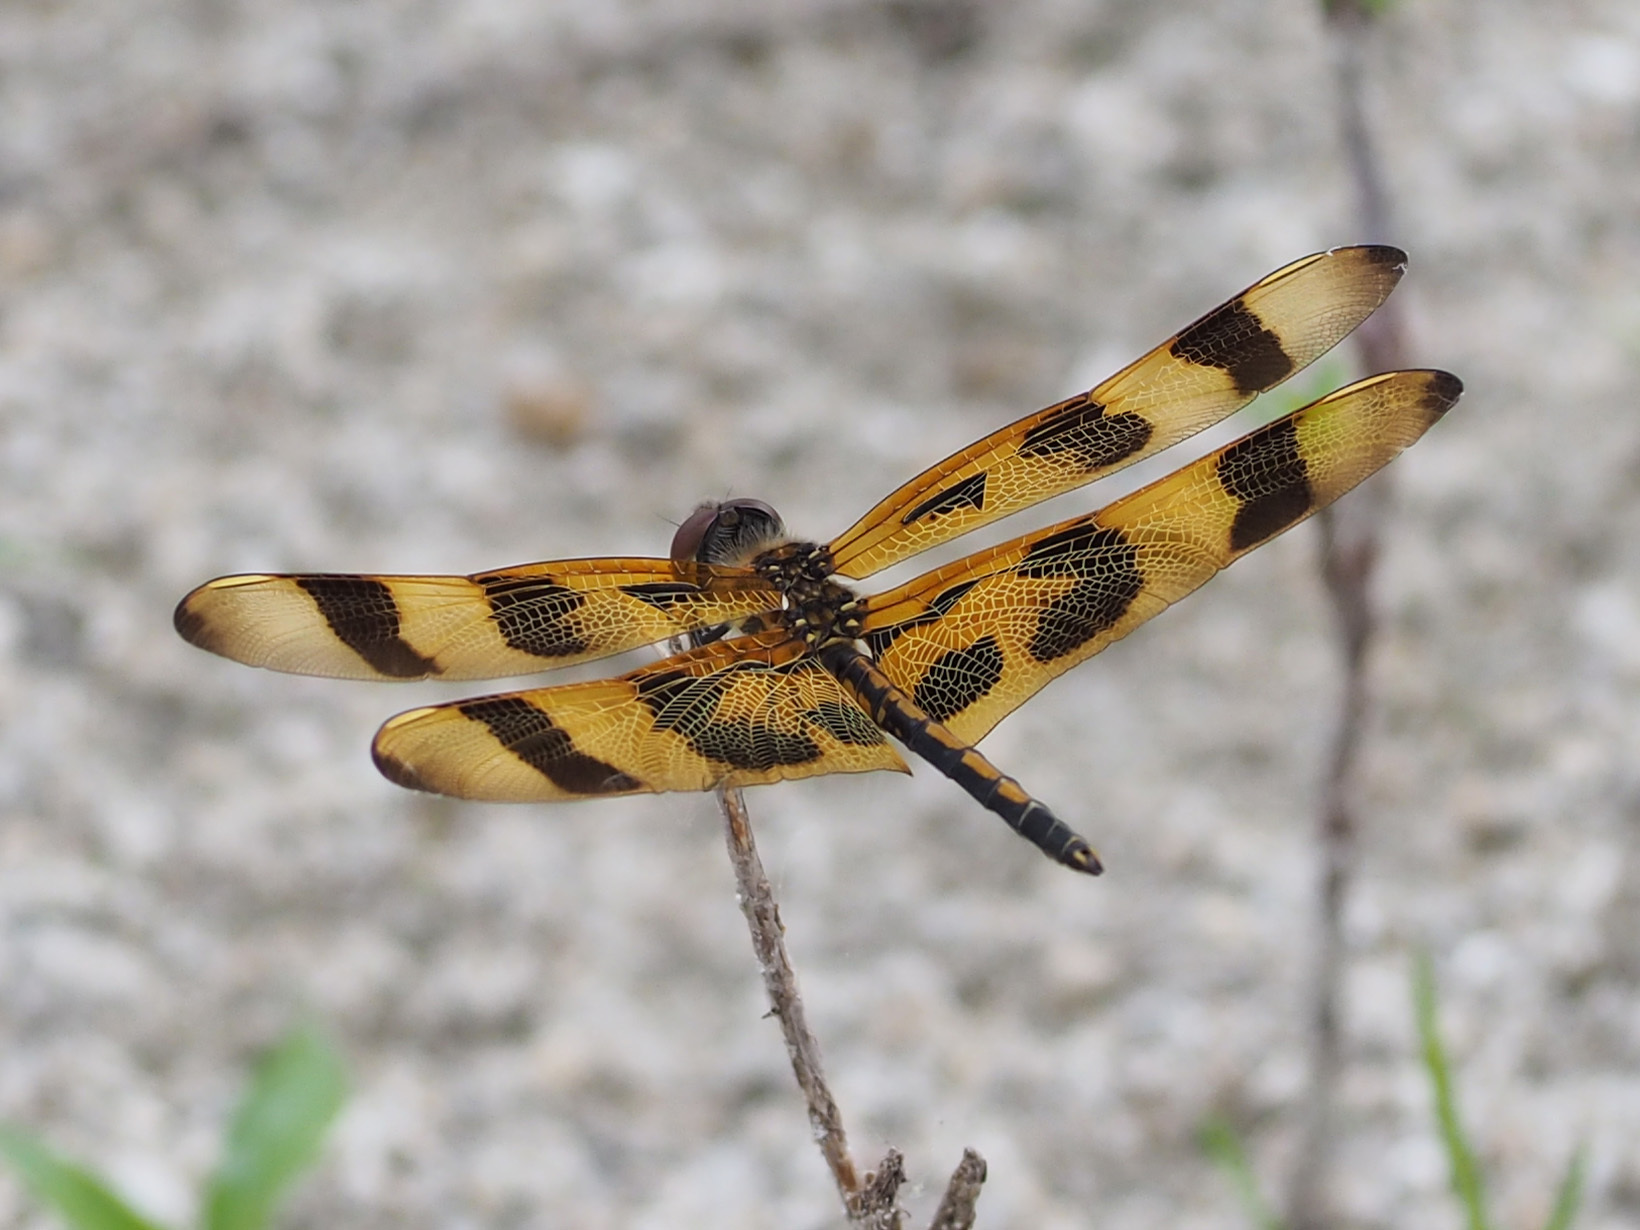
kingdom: Animalia
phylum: Arthropoda
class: Insecta
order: Odonata
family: Libellulidae
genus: Celithemis
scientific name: Celithemis eponina
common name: Halloween pennant
